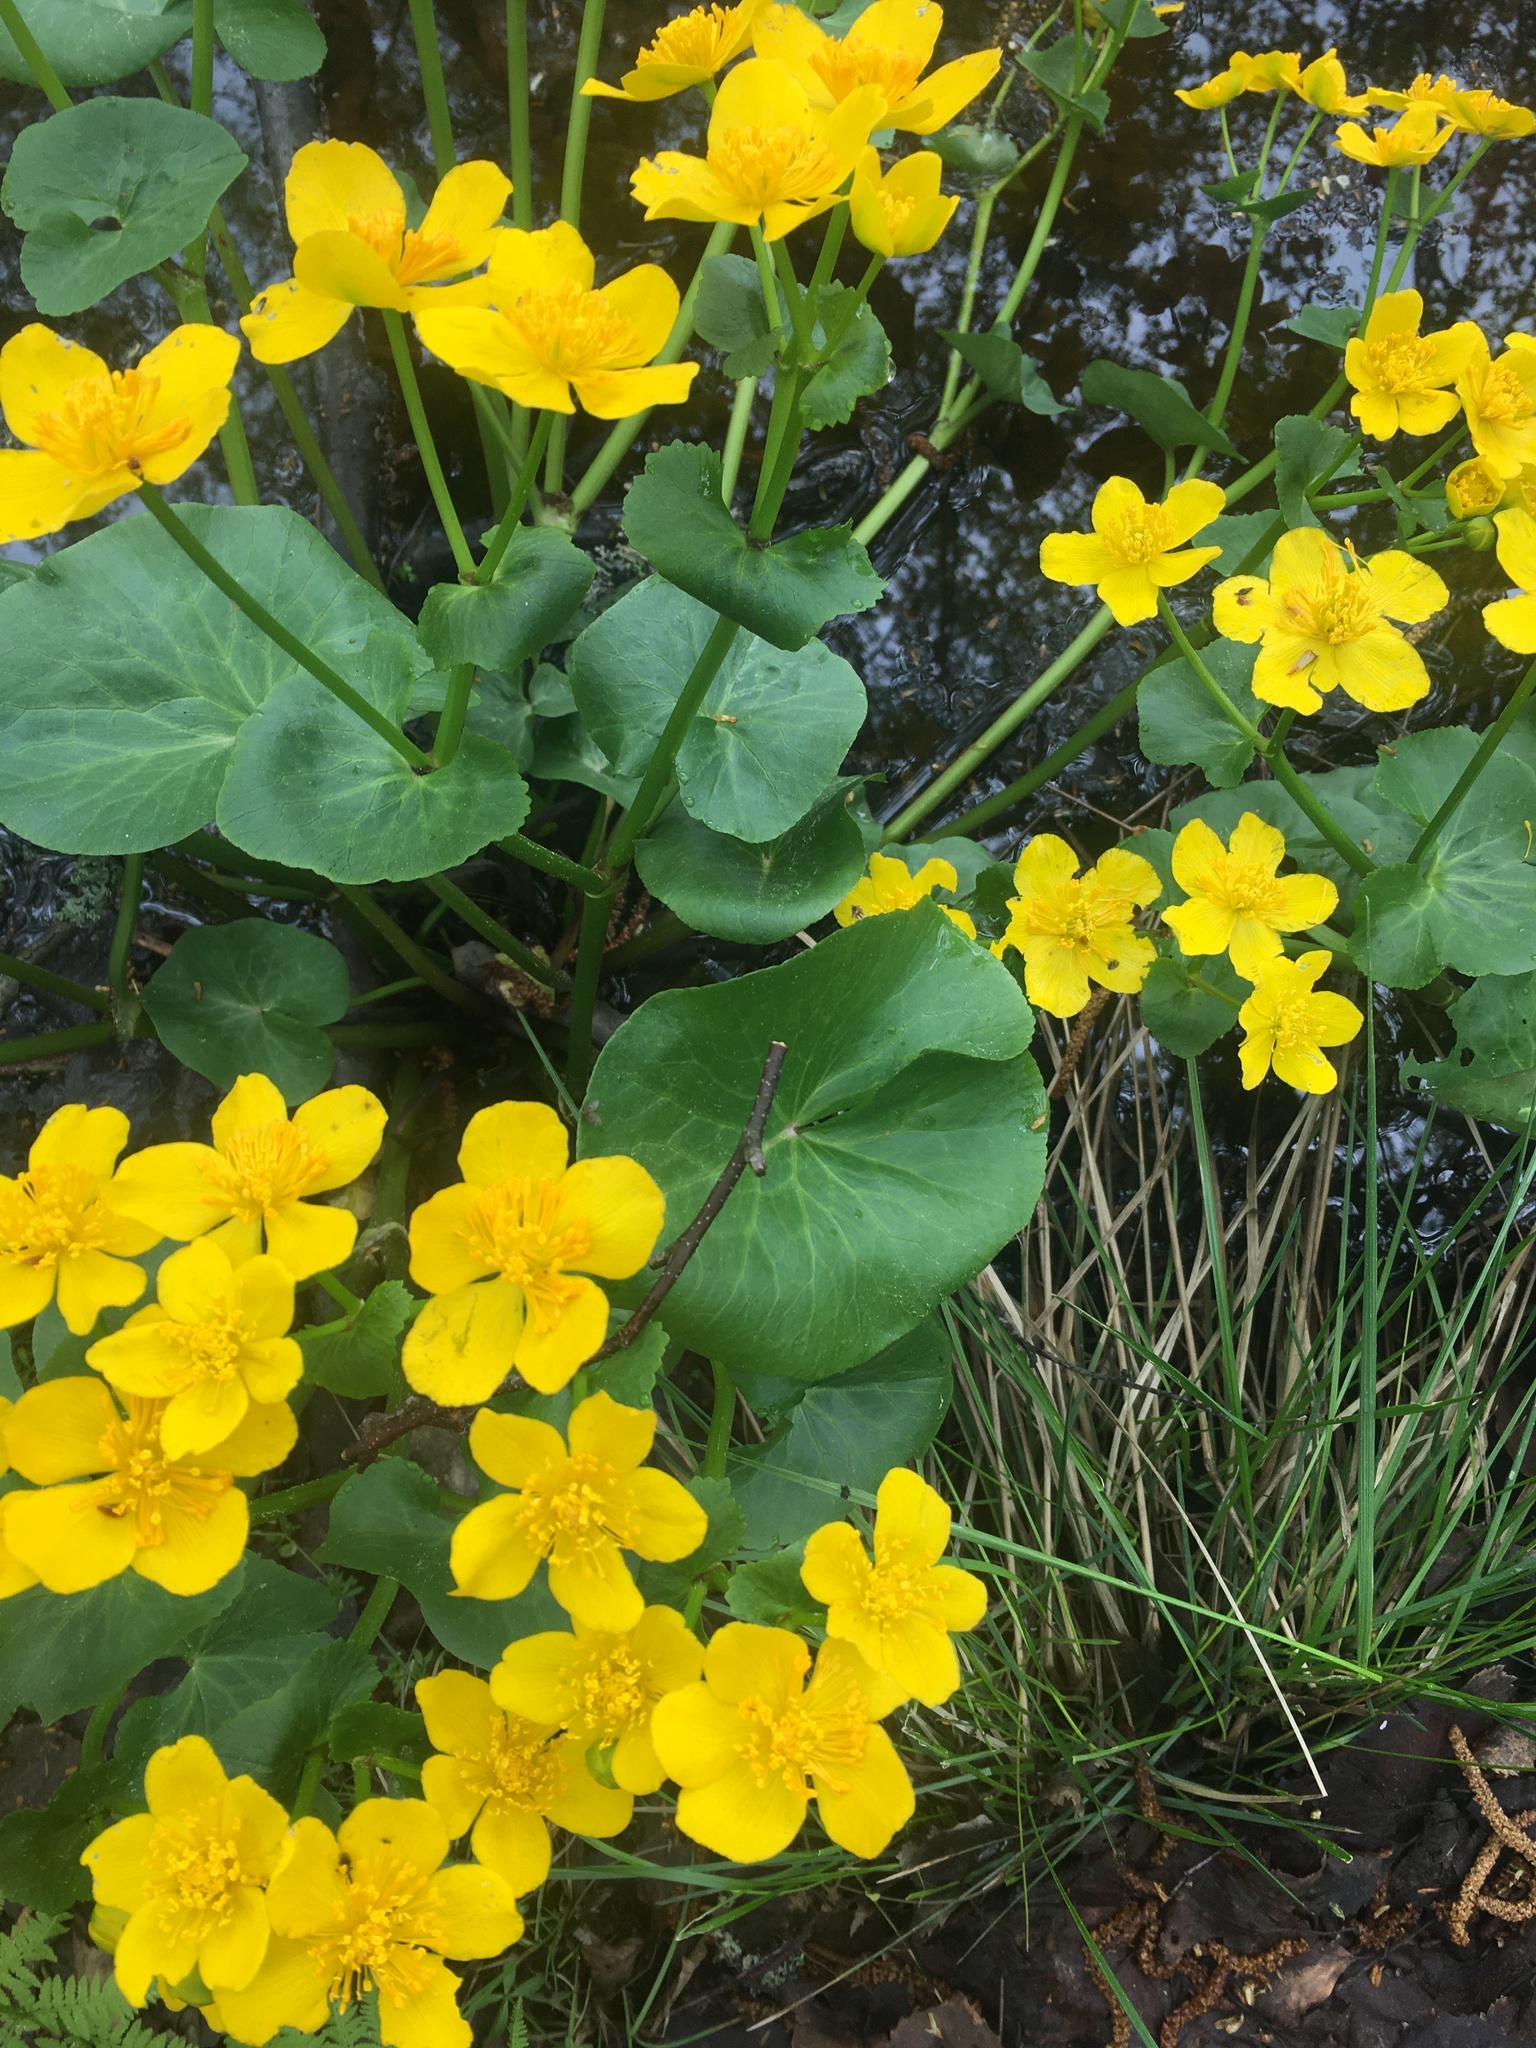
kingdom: Plantae
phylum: Tracheophyta
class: Magnoliopsida
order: Ranunculales
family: Ranunculaceae
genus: Caltha
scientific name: Caltha palustris
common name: Marsh marigold
